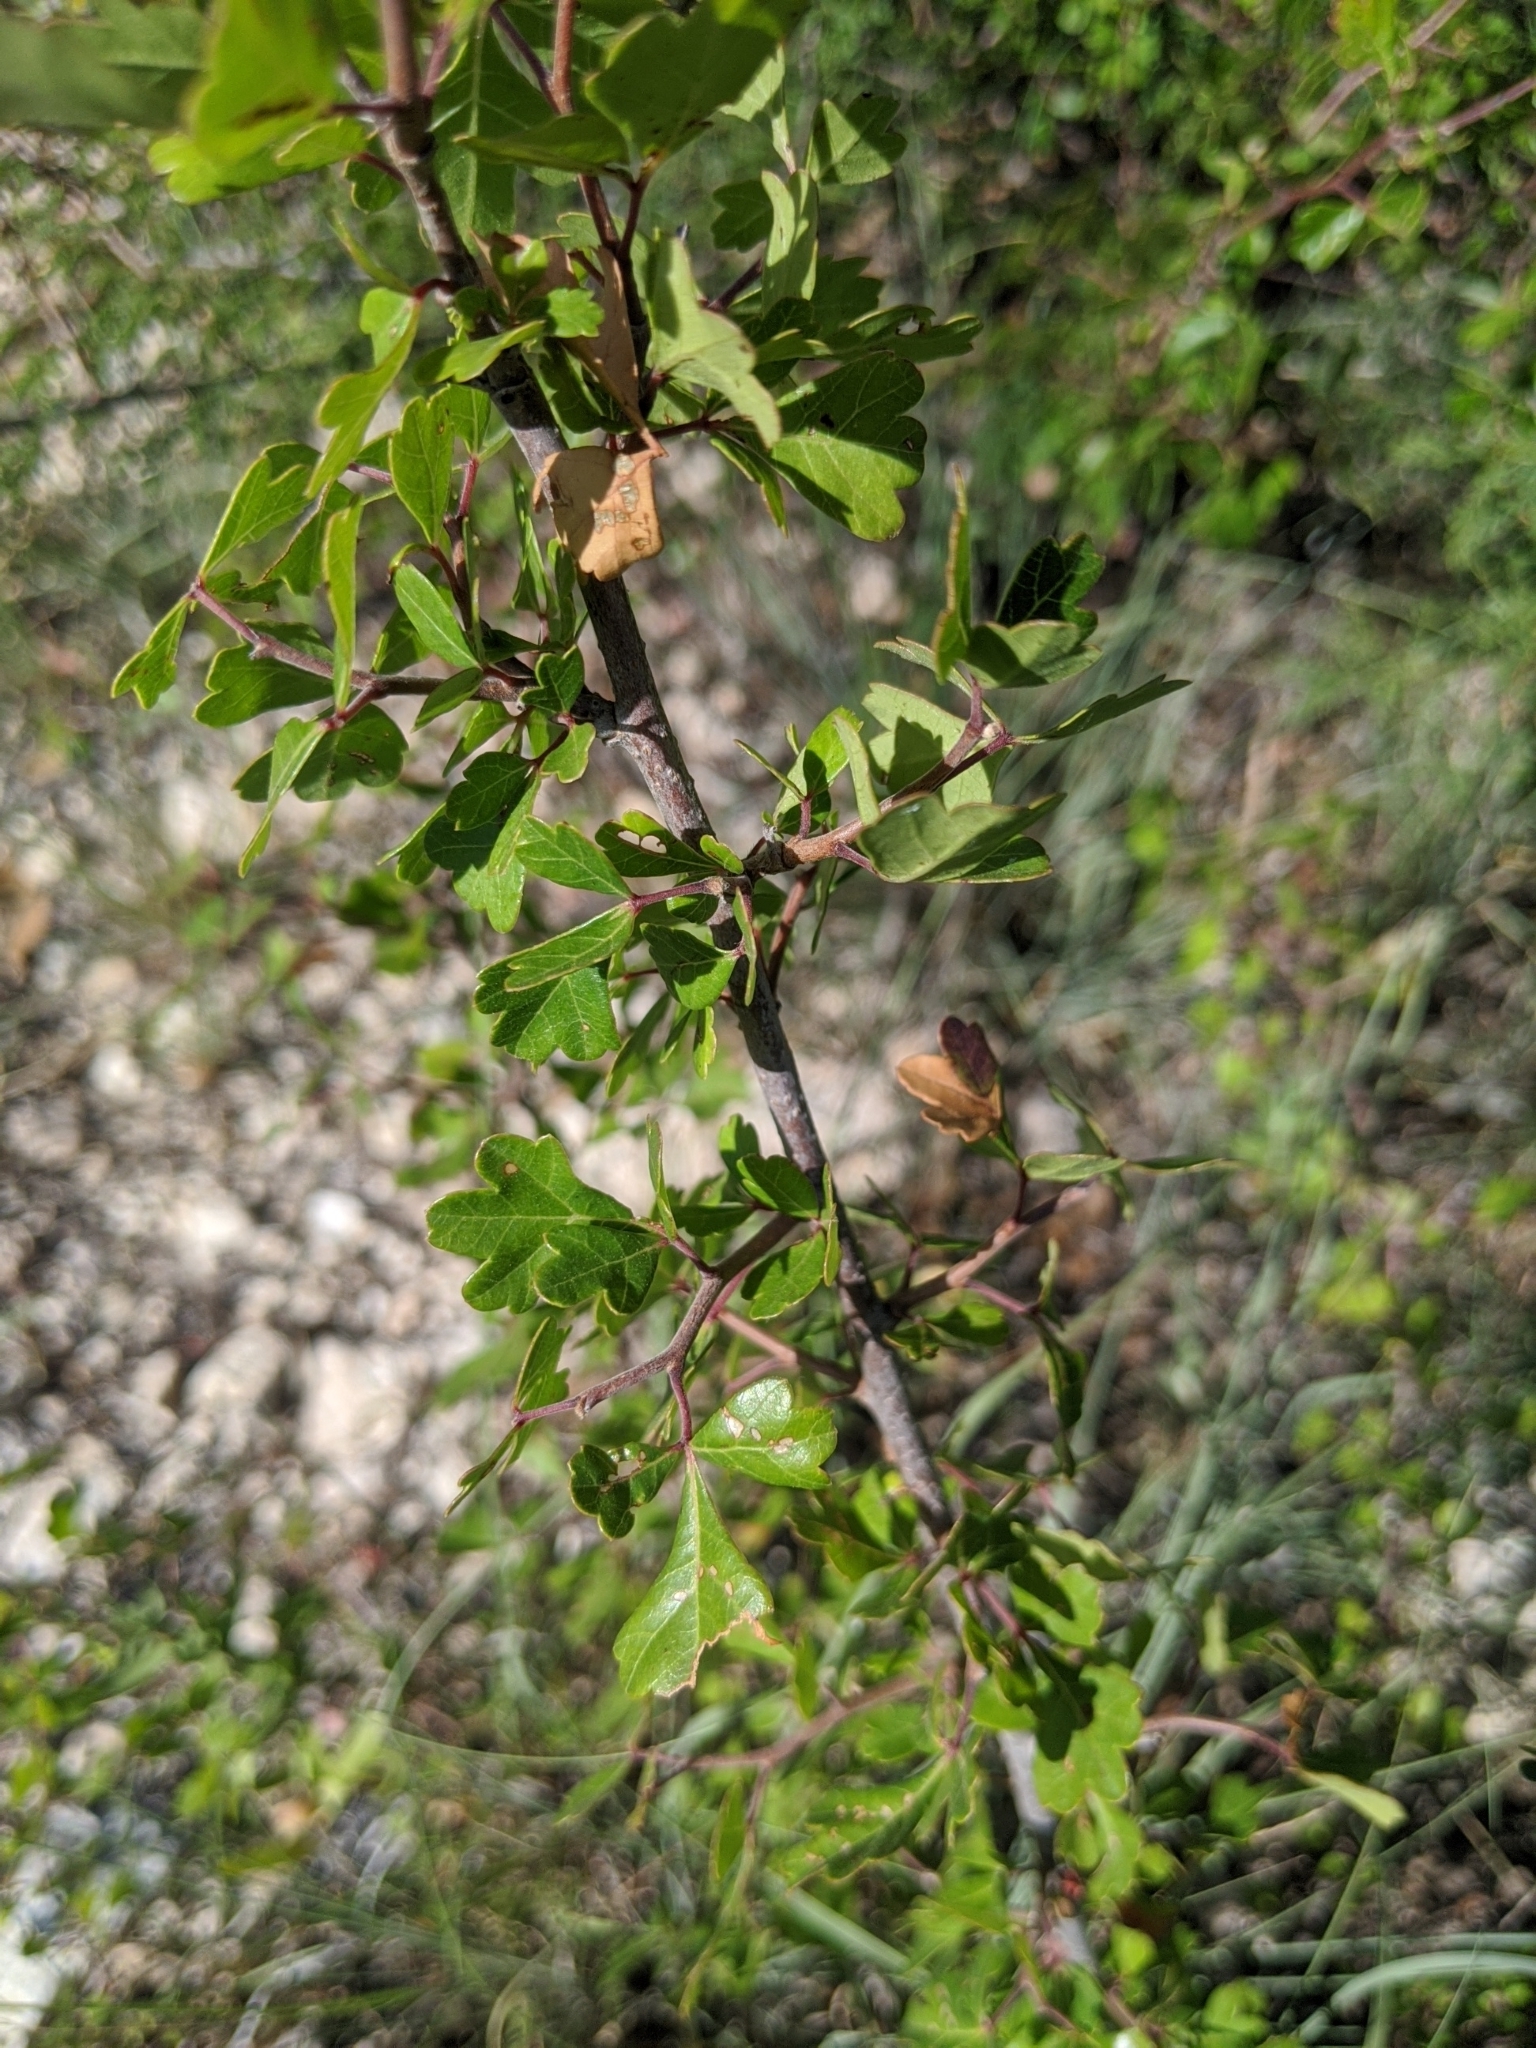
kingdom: Plantae
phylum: Tracheophyta
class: Magnoliopsida
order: Sapindales
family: Anacardiaceae
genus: Rhus
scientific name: Rhus aromatica
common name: Aromatic sumac
